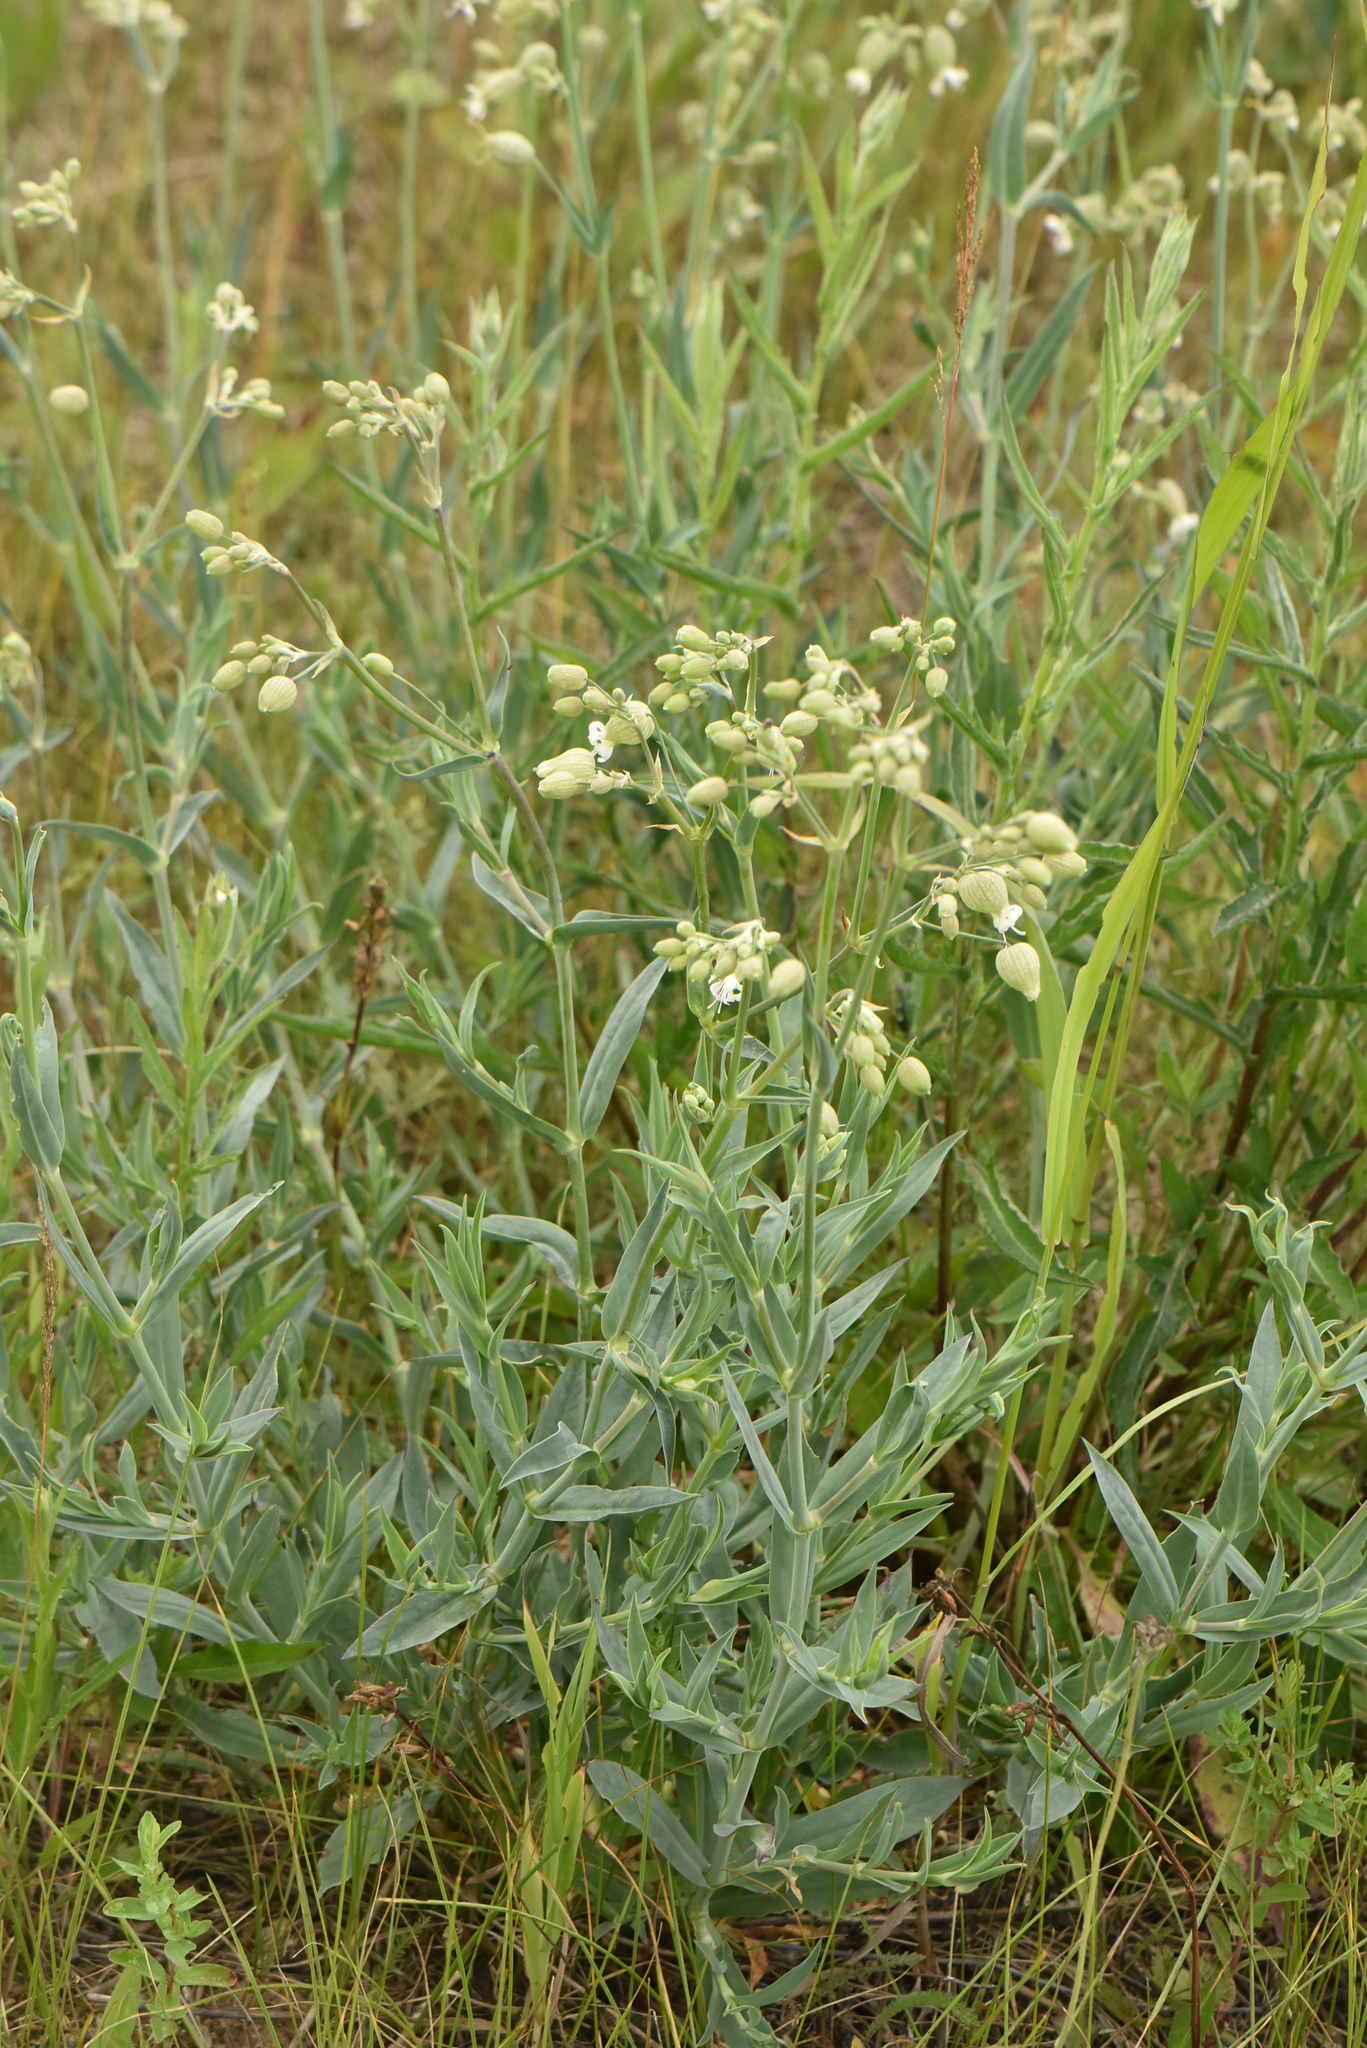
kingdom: Plantae
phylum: Tracheophyta
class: Magnoliopsida
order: Caryophyllales
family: Caryophyllaceae
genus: Silene
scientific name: Silene vulgaris
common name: Bladder campion
